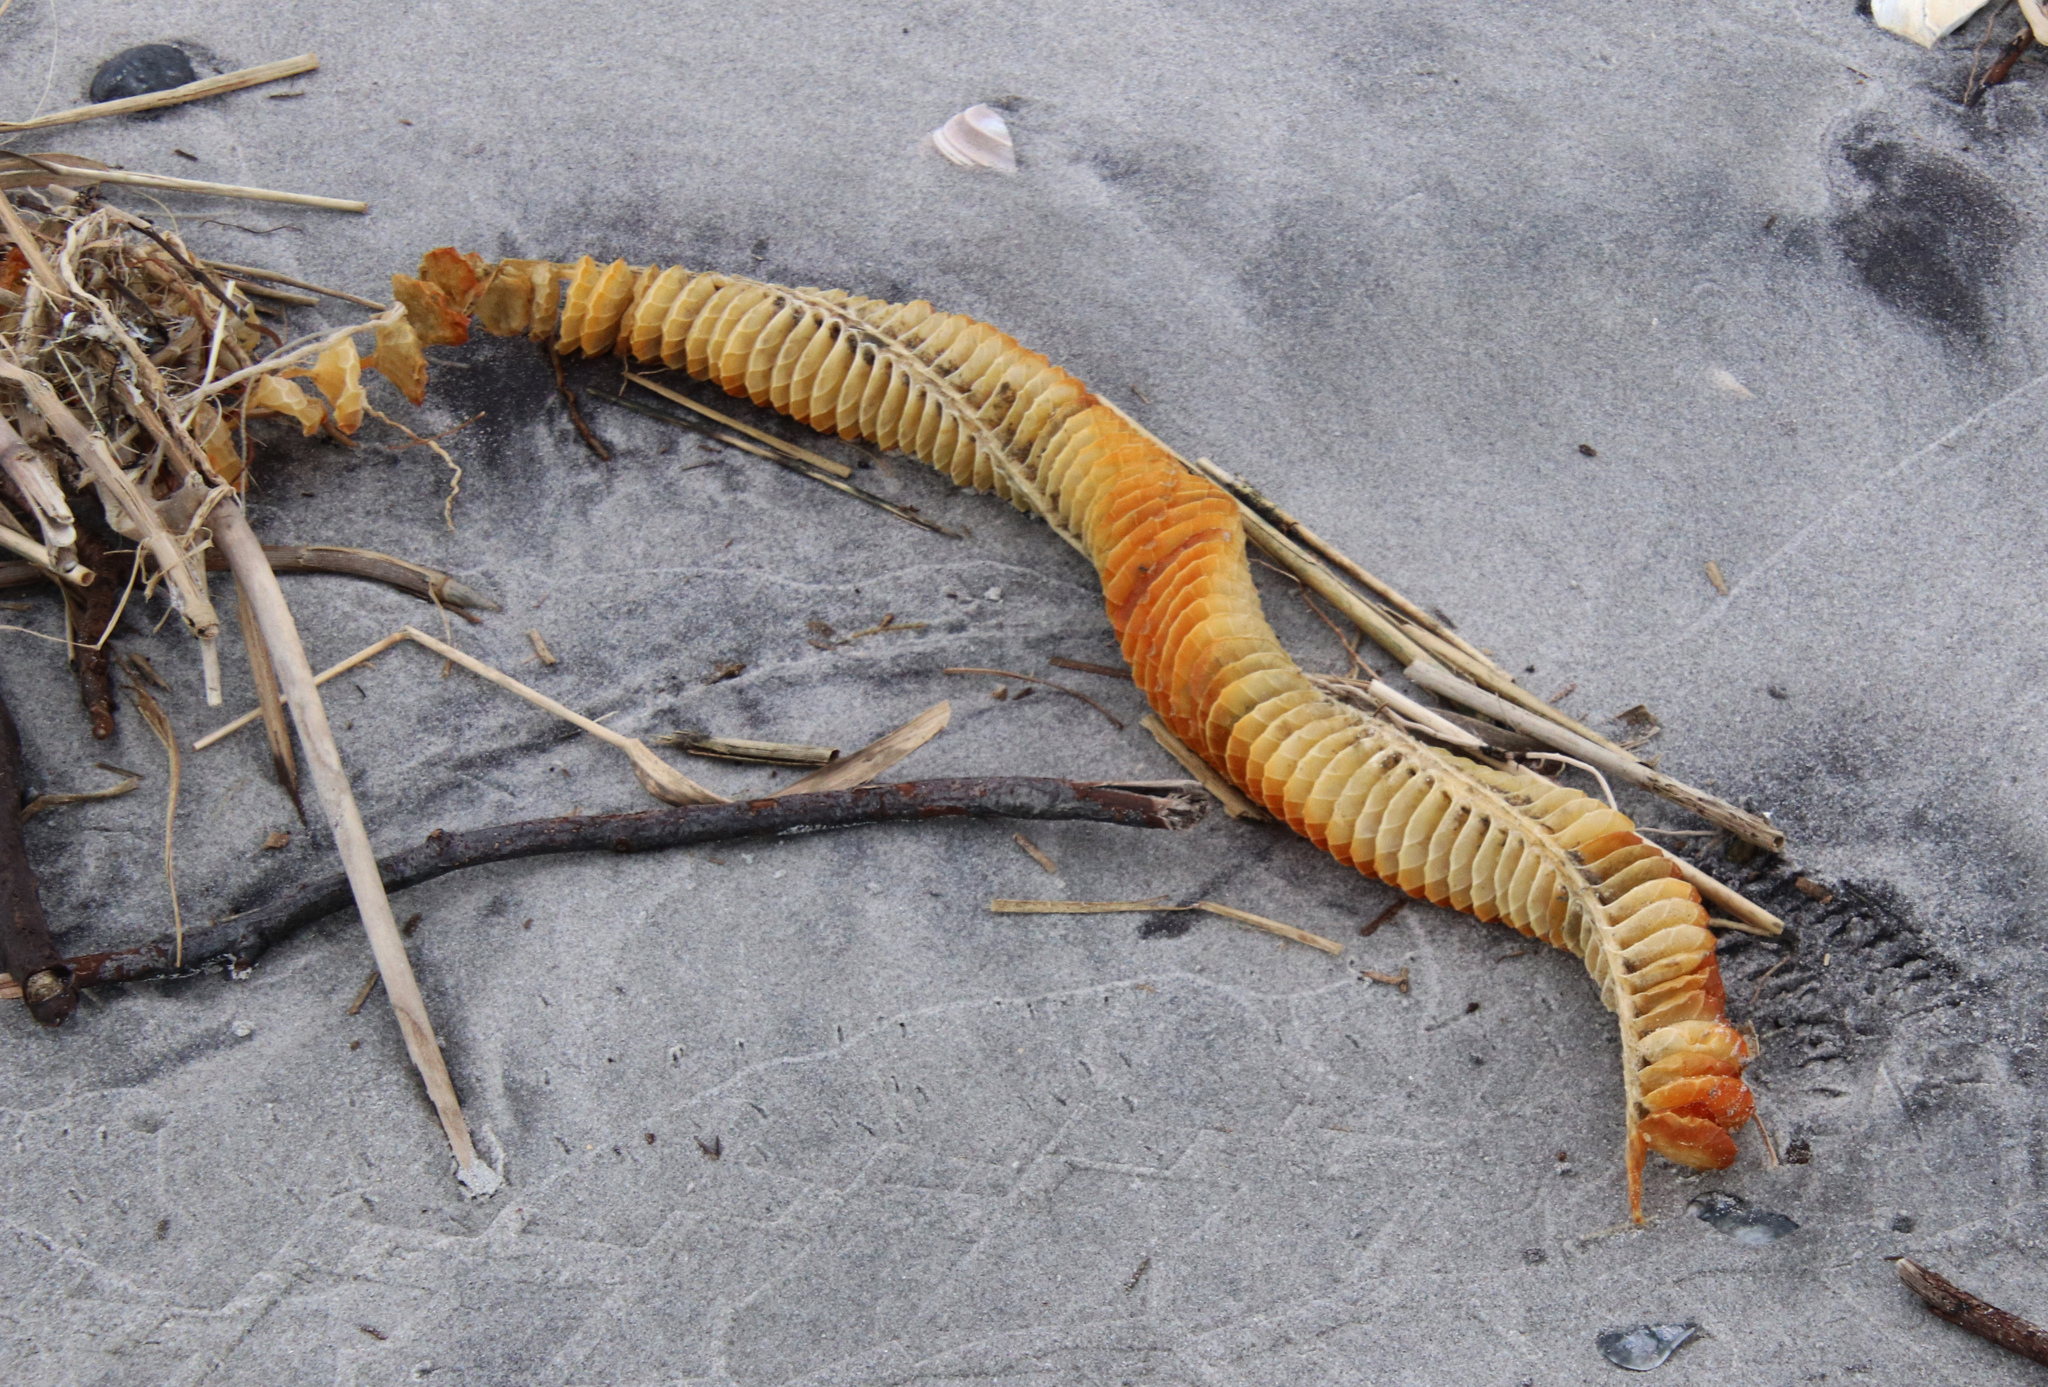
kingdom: Animalia
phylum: Mollusca
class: Gastropoda
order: Neogastropoda
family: Busyconidae
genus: Busycon
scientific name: Busycon carica
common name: Knobbed whelk
